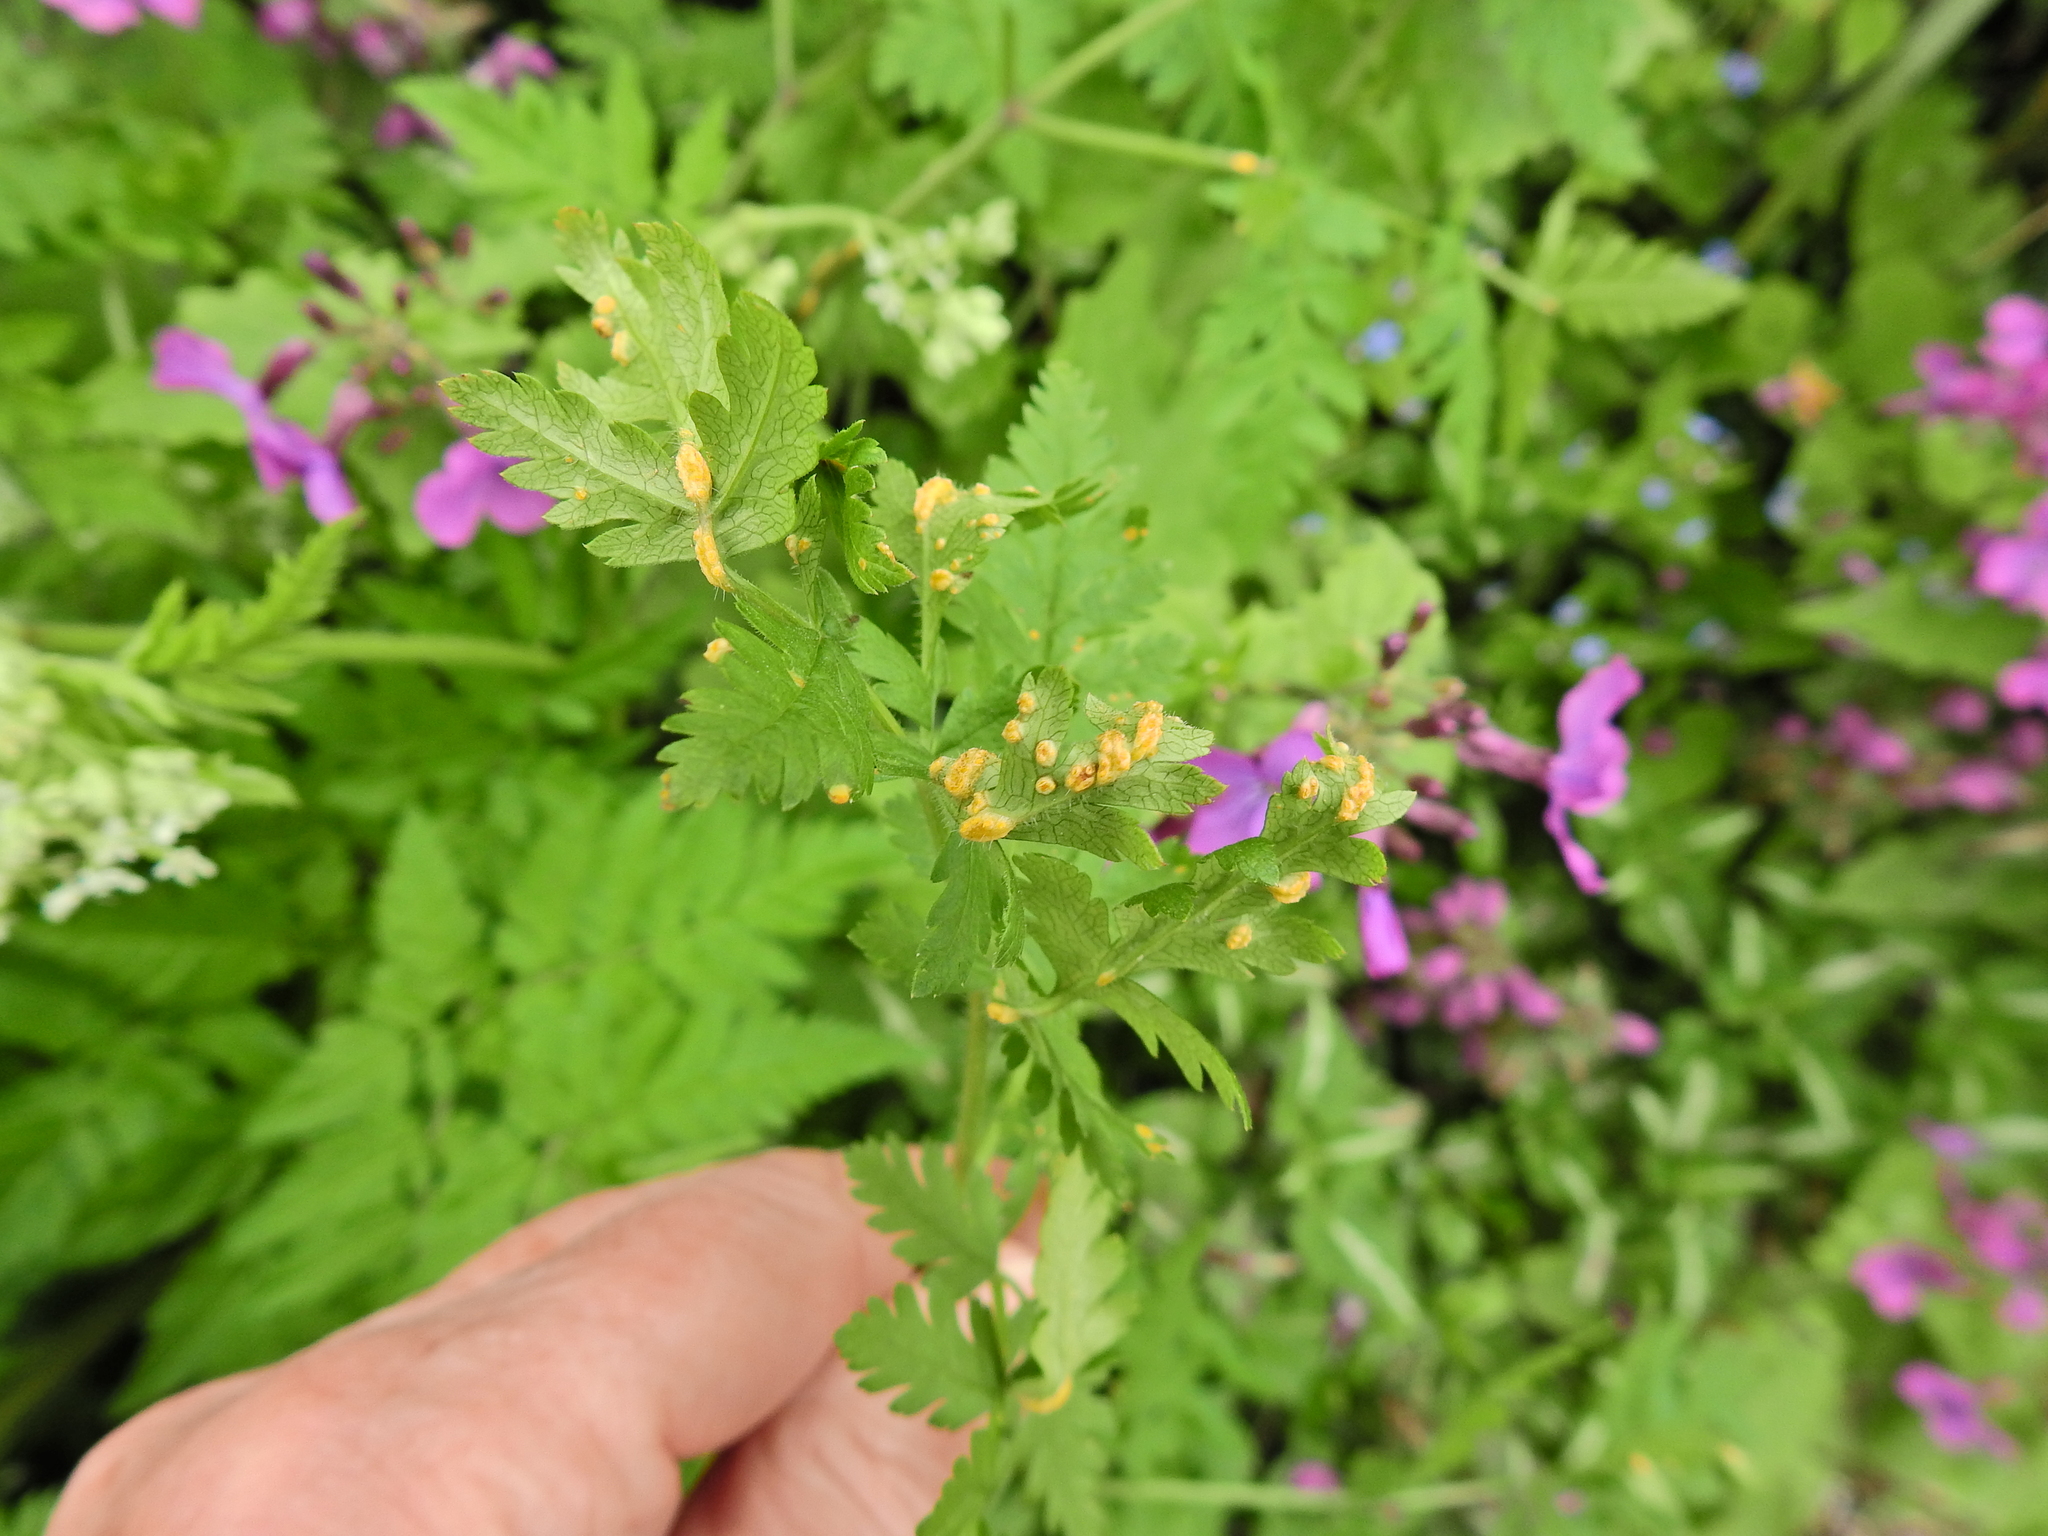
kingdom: Fungi
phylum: Basidiomycota
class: Pucciniomycetes
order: Pucciniales
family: Pucciniaceae
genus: Puccinia
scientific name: Puccinia chaerophylli
